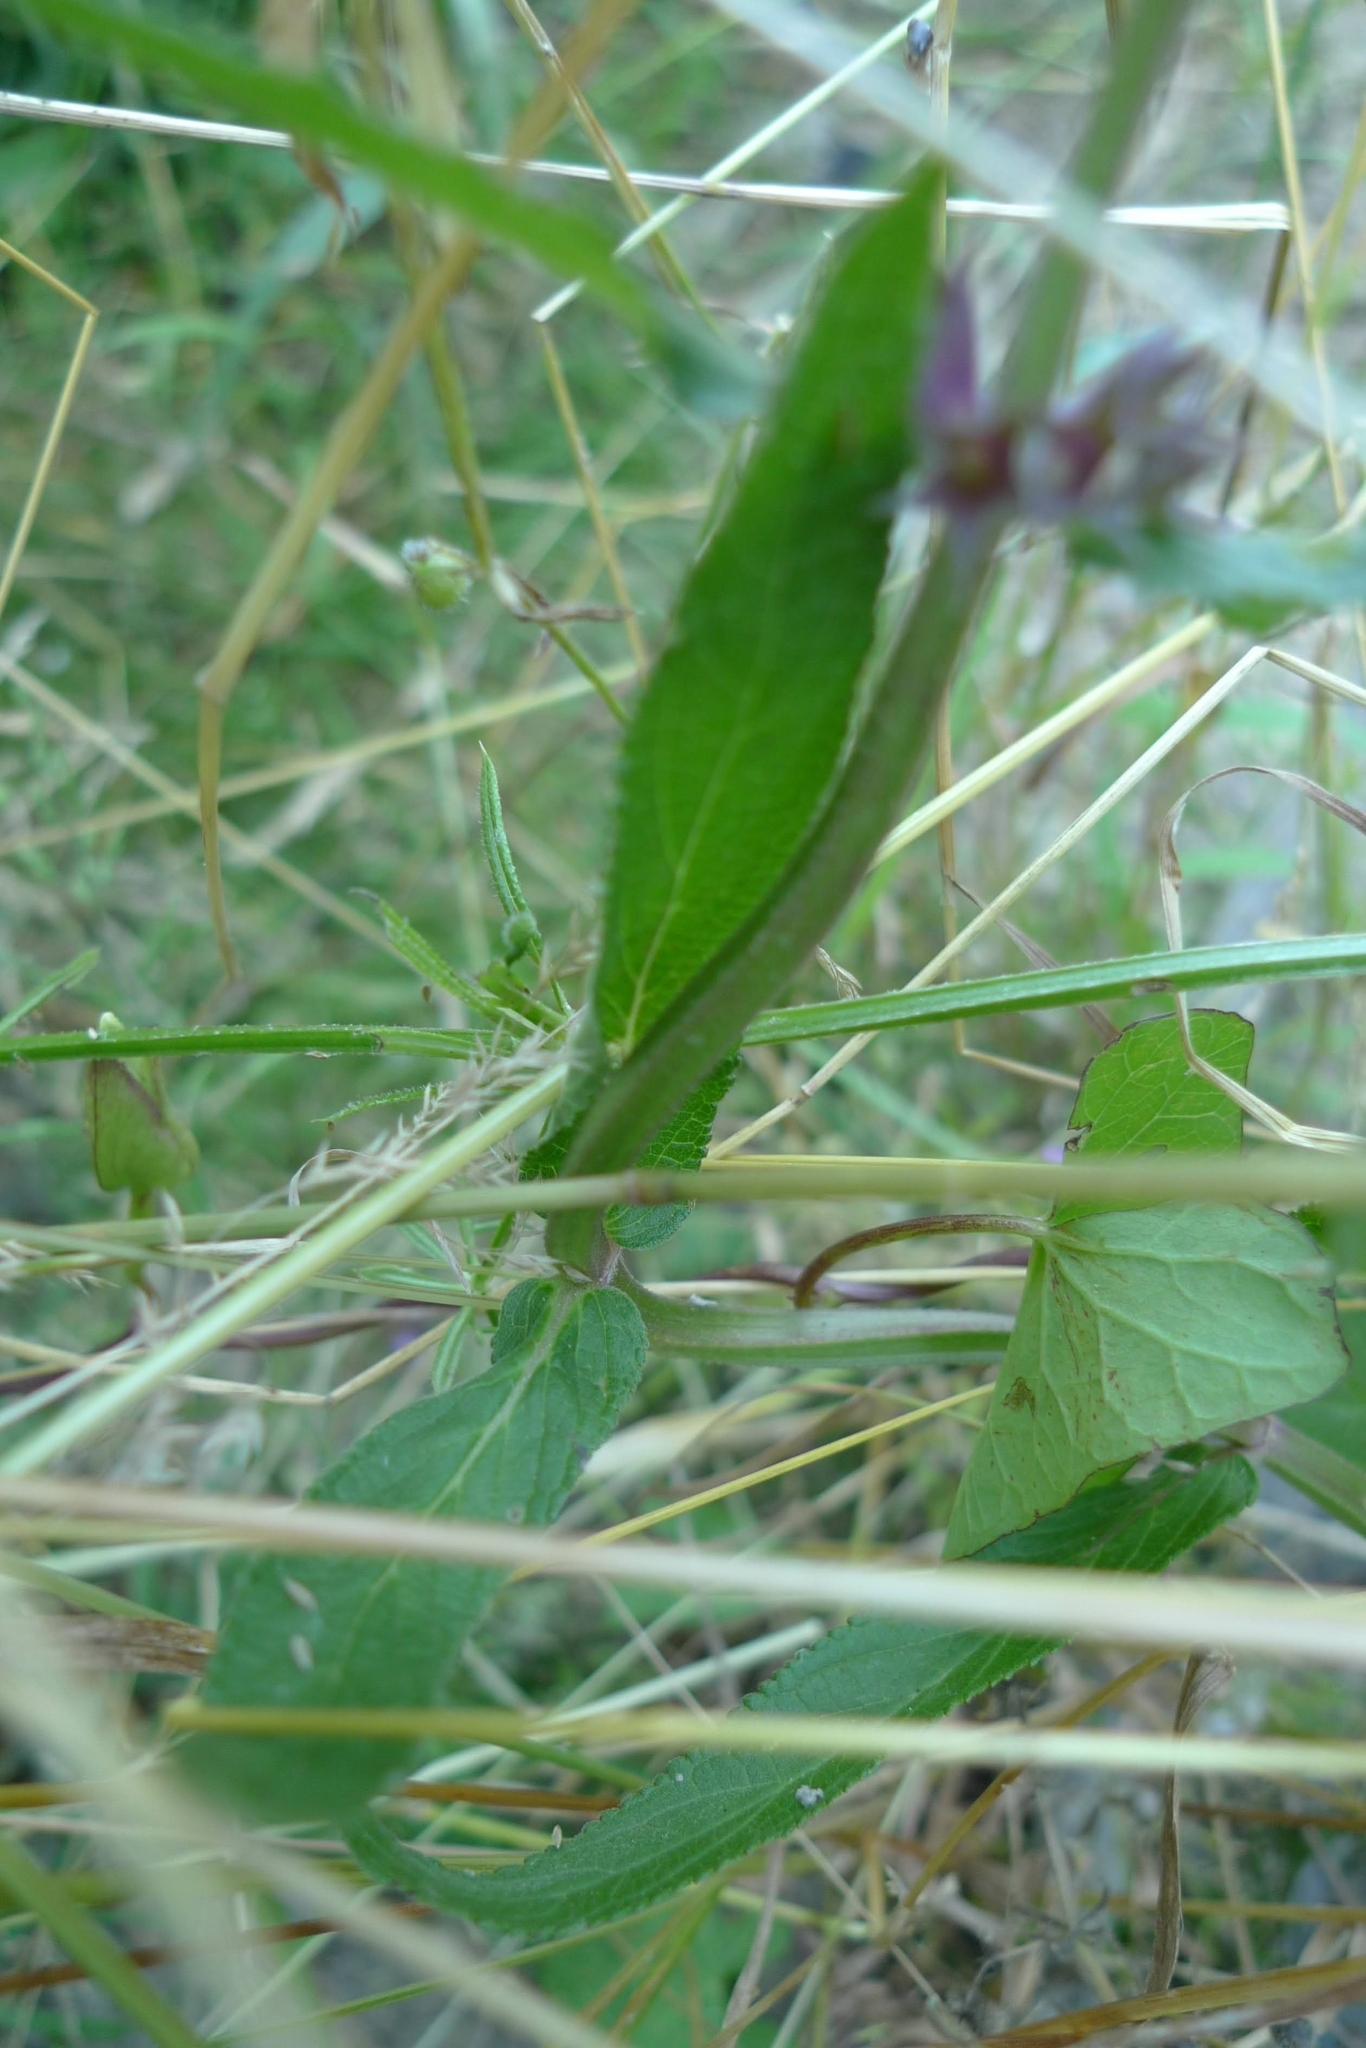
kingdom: Plantae
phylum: Tracheophyta
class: Magnoliopsida
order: Lamiales
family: Lamiaceae
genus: Stachys
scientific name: Stachys palustris
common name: Marsh woundwort
